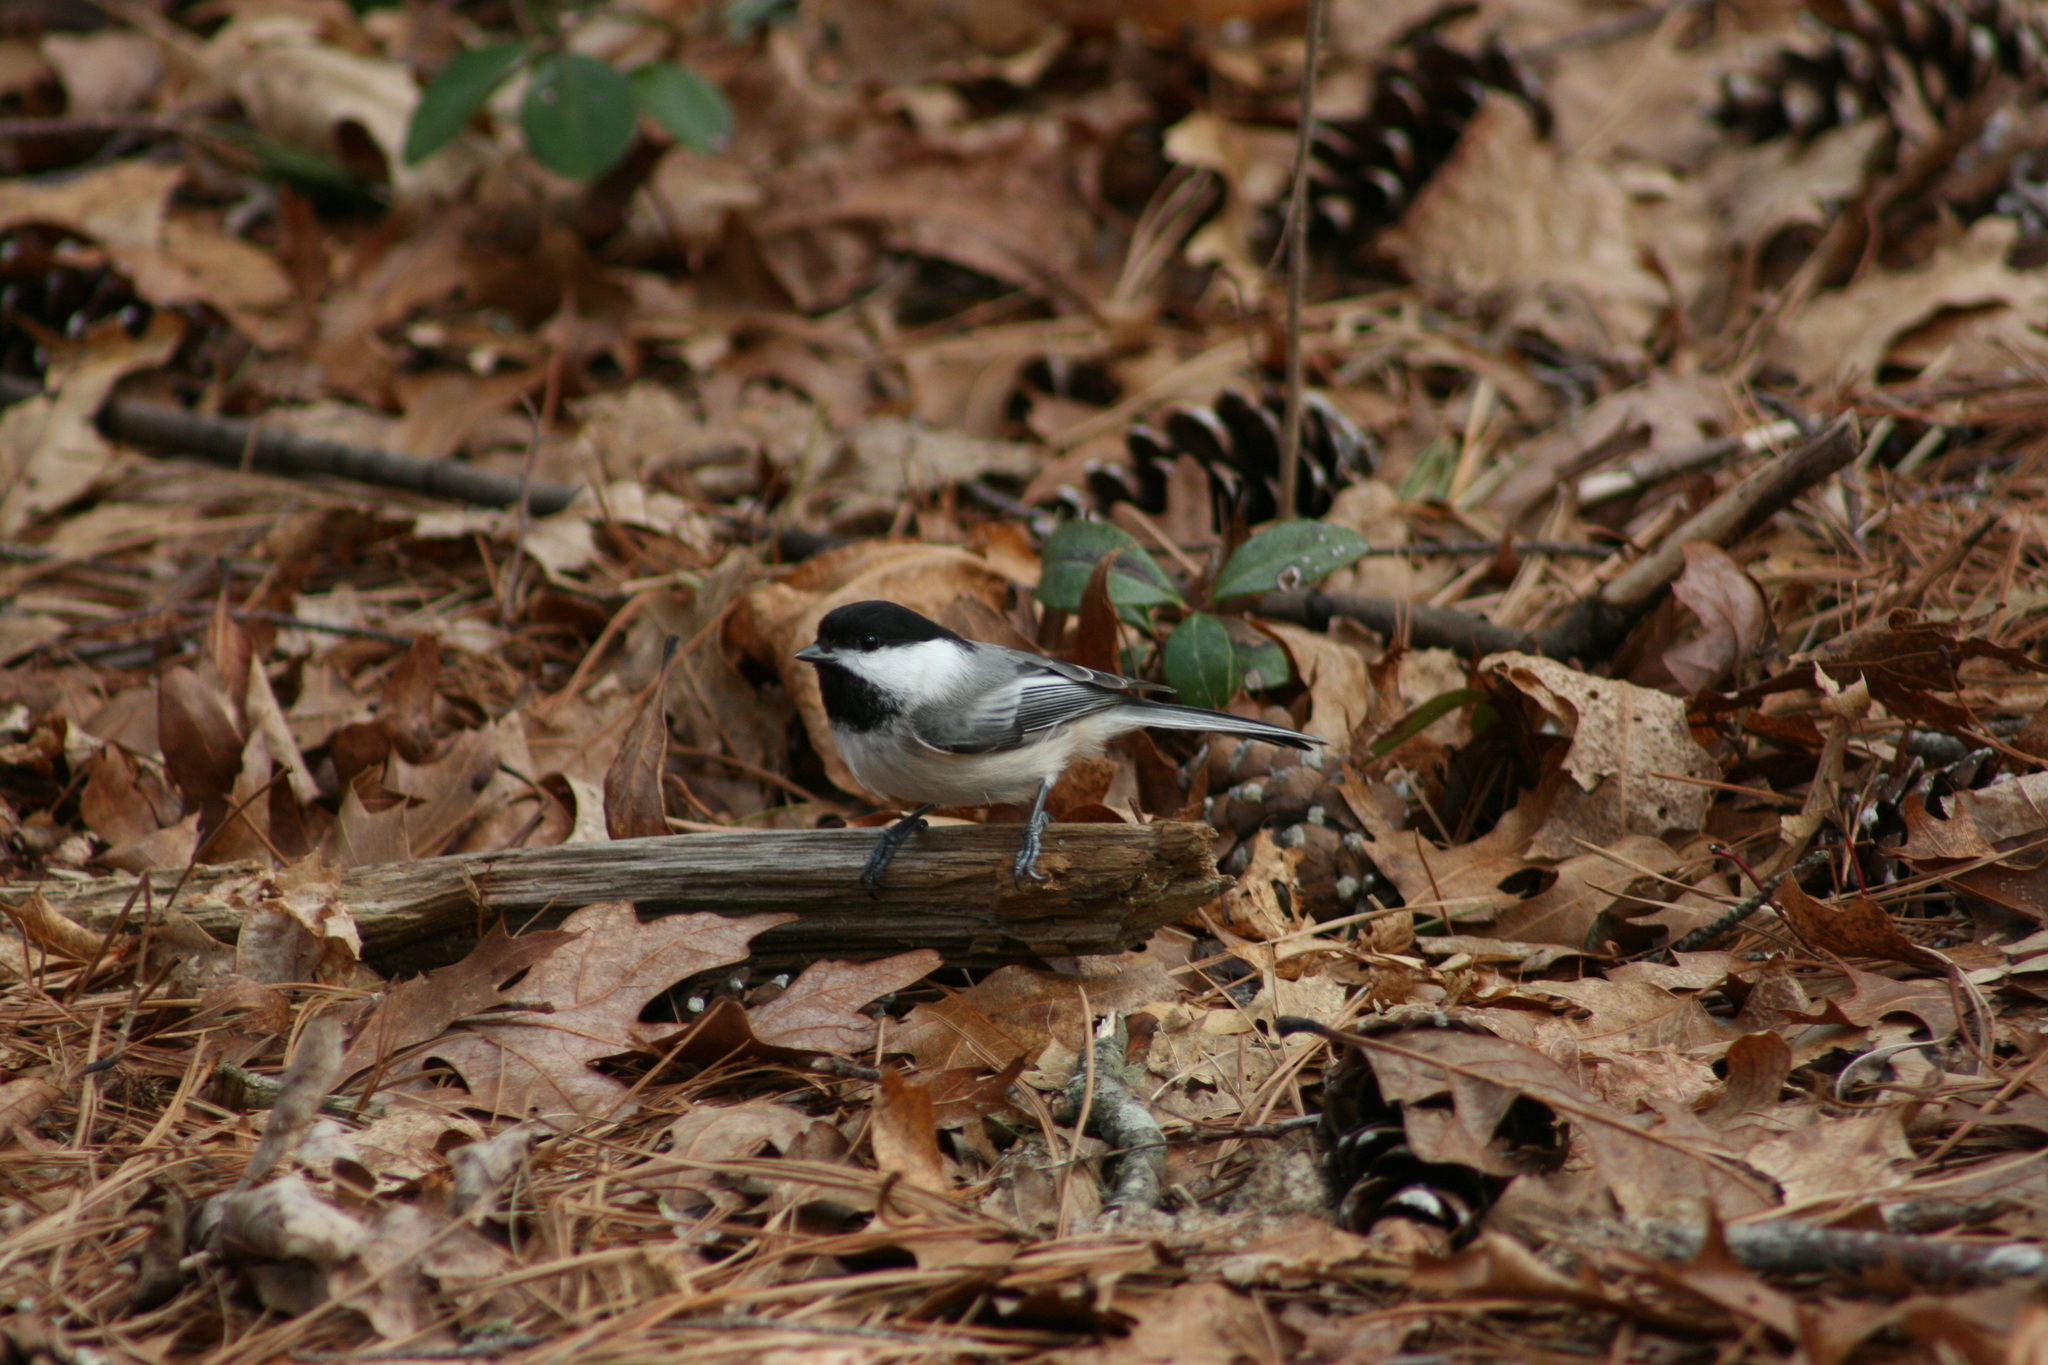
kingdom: Animalia
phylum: Chordata
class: Aves
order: Passeriformes
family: Paridae
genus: Poecile
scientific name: Poecile atricapillus
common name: Black-capped chickadee
